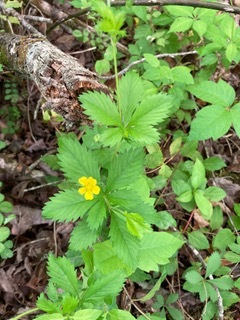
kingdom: Plantae
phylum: Tracheophyta
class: Magnoliopsida
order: Rosales
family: Rosaceae
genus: Potentilla
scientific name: Potentilla simplex
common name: Old field cinquefoil
